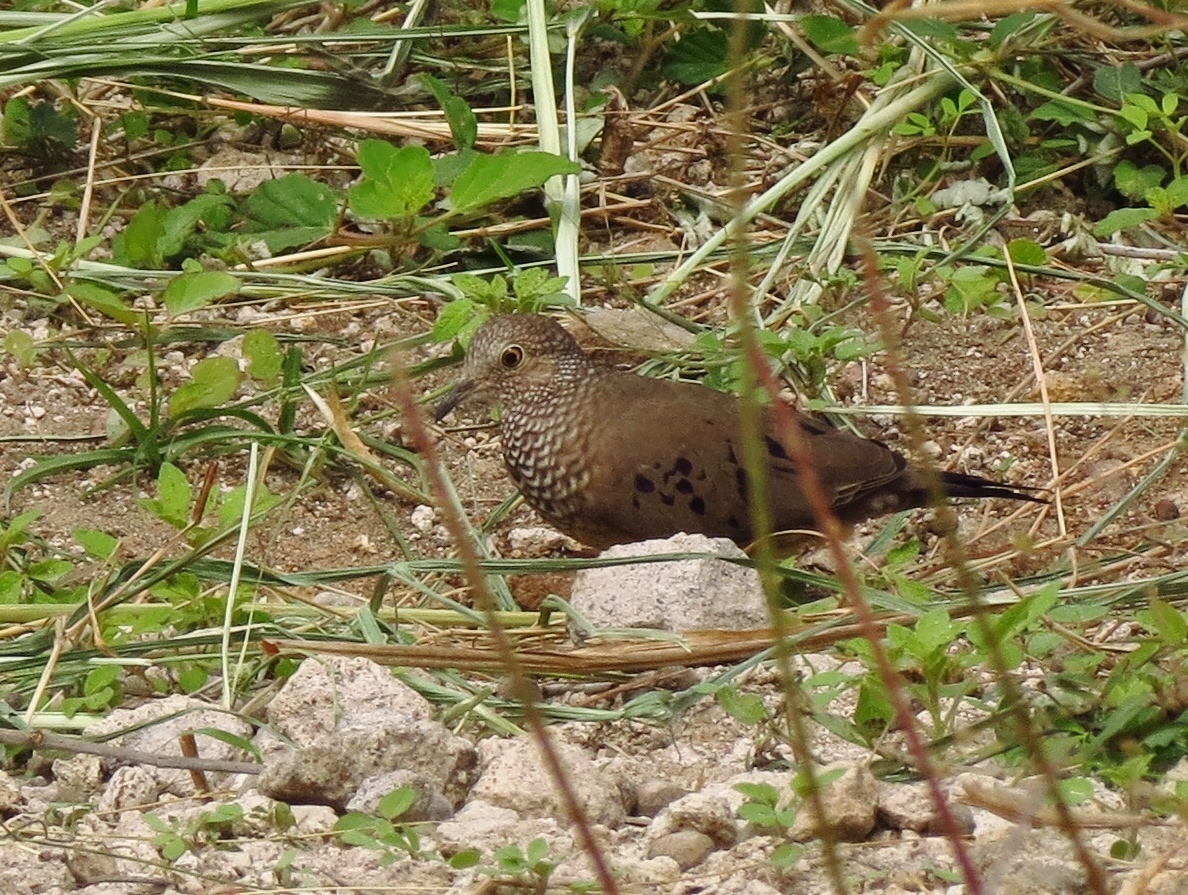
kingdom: Animalia
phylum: Chordata
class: Aves
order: Columbiformes
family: Columbidae
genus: Columbina
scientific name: Columbina passerina
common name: Common ground-dove
